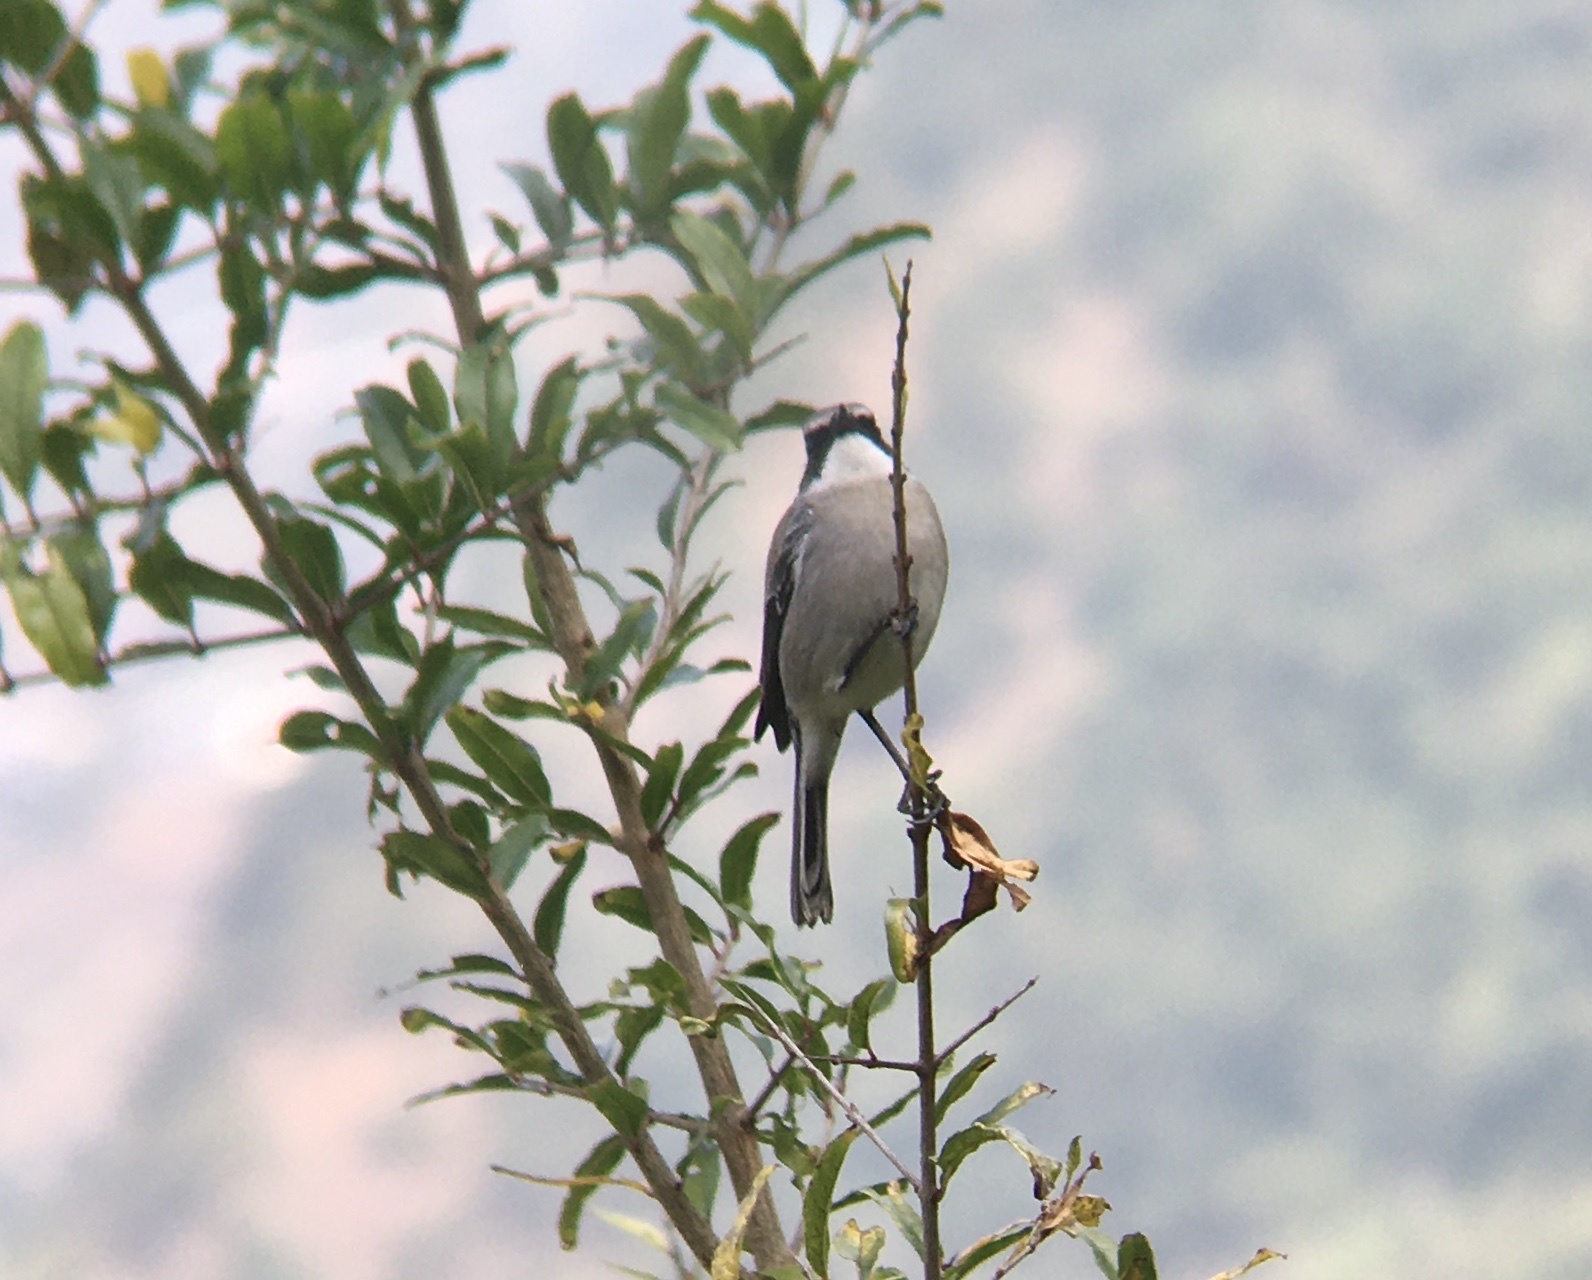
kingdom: Animalia
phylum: Chordata
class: Aves
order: Passeriformes
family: Muscicapidae
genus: Saxicola
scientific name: Saxicola ferreus
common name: Grey bush chat
